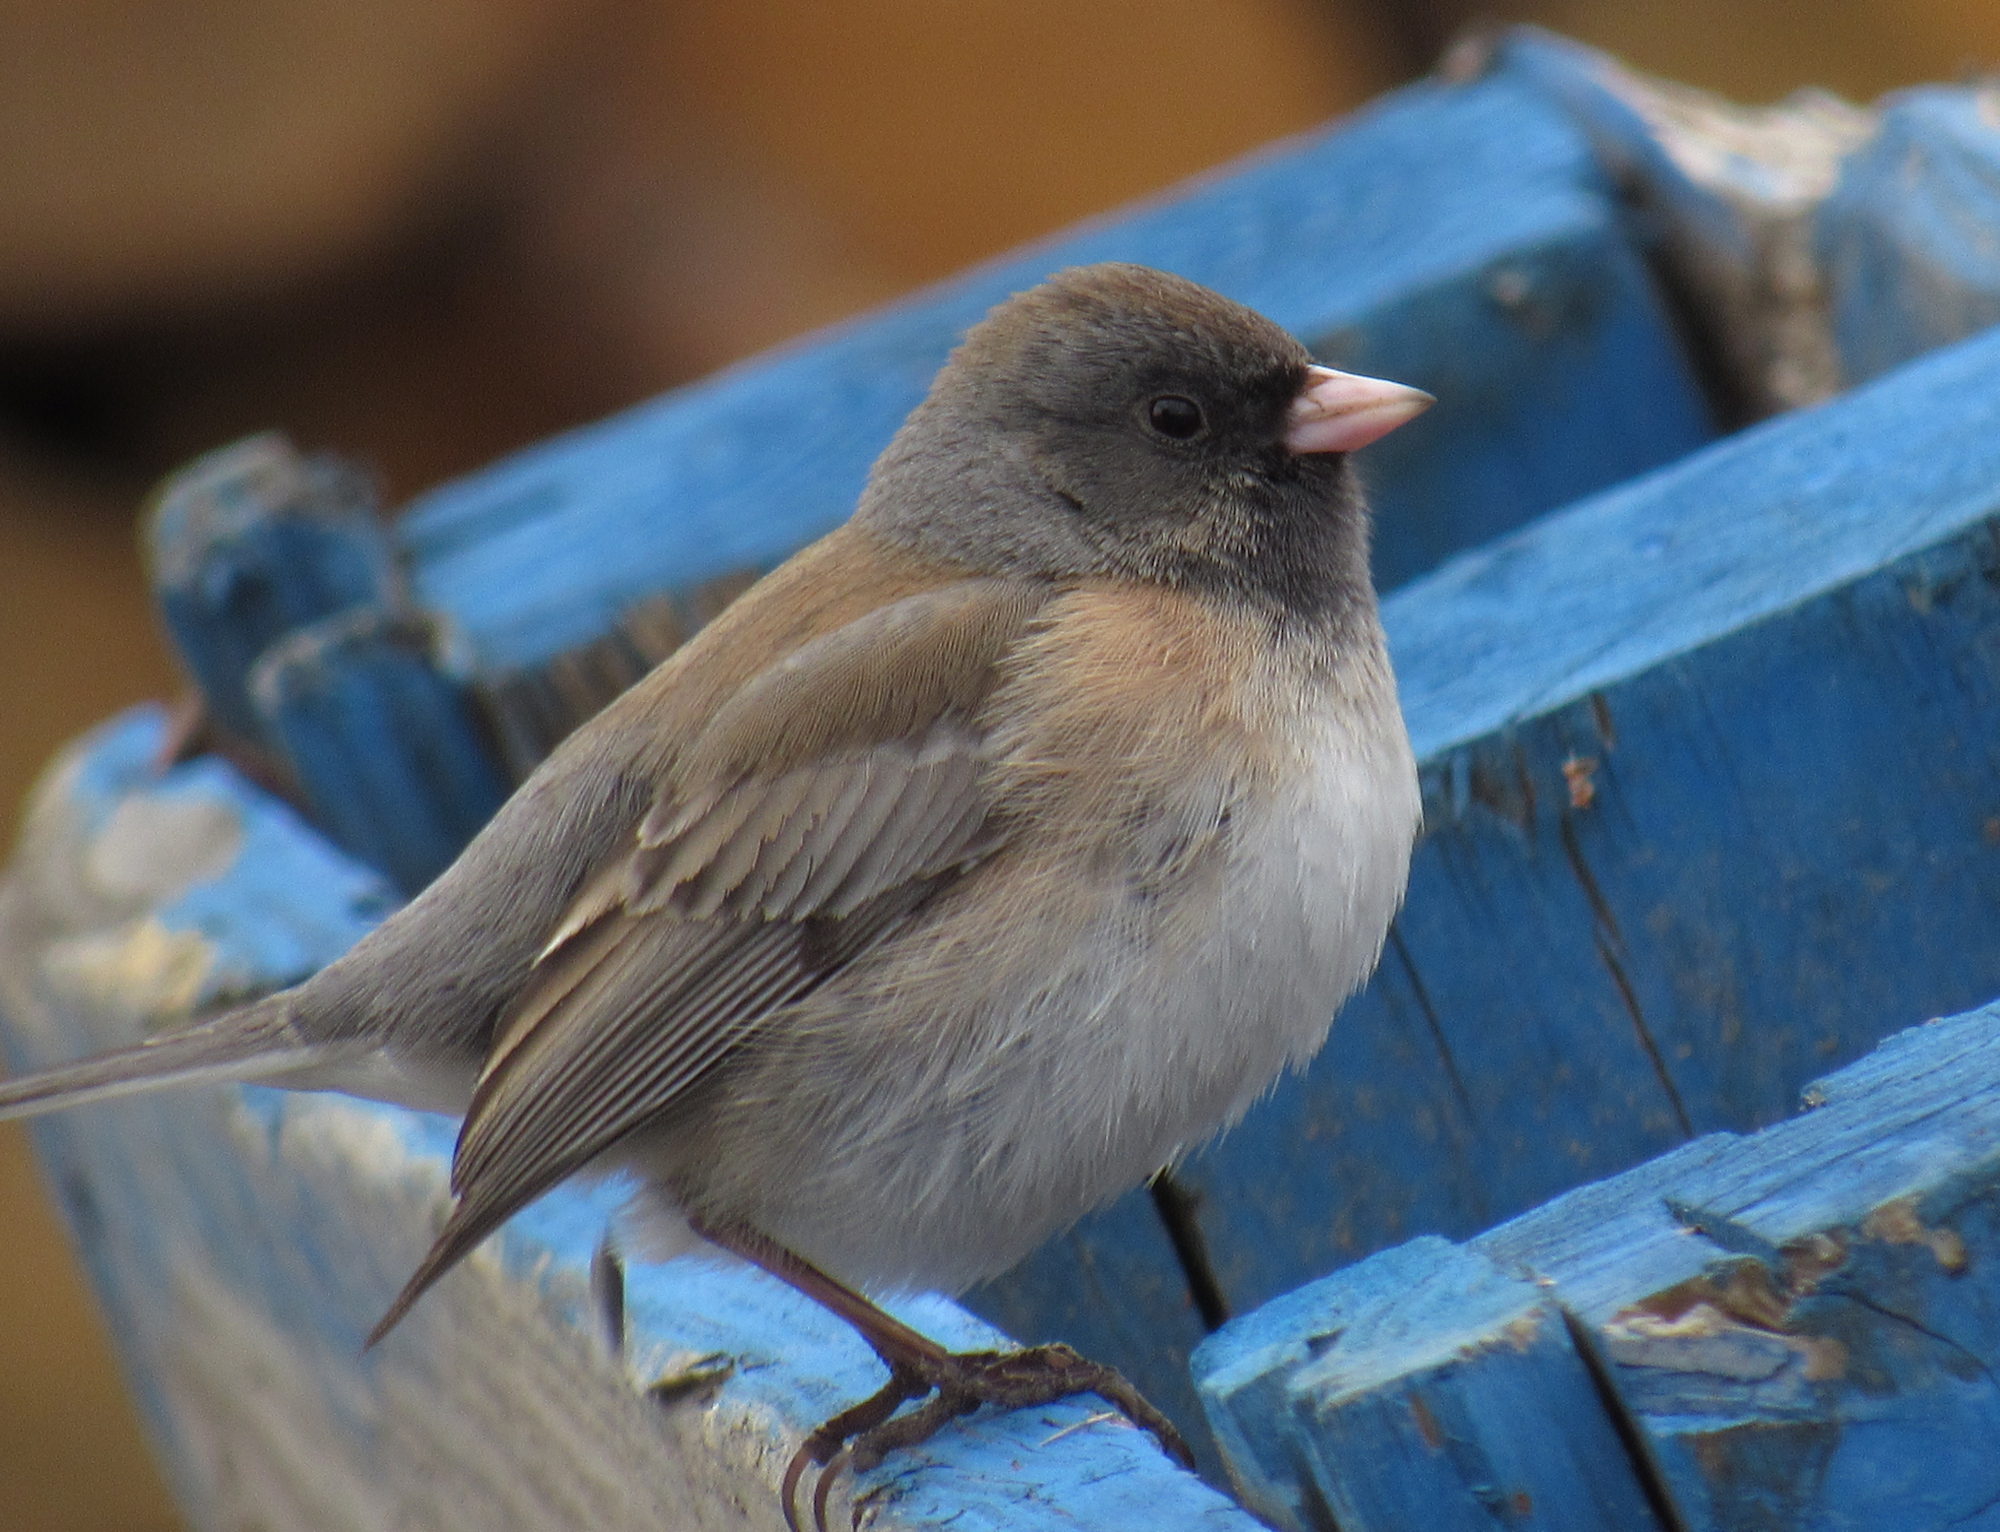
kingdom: Animalia
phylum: Chordata
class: Aves
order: Passeriformes
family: Passerellidae
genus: Junco
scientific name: Junco hyemalis
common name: Dark-eyed junco
